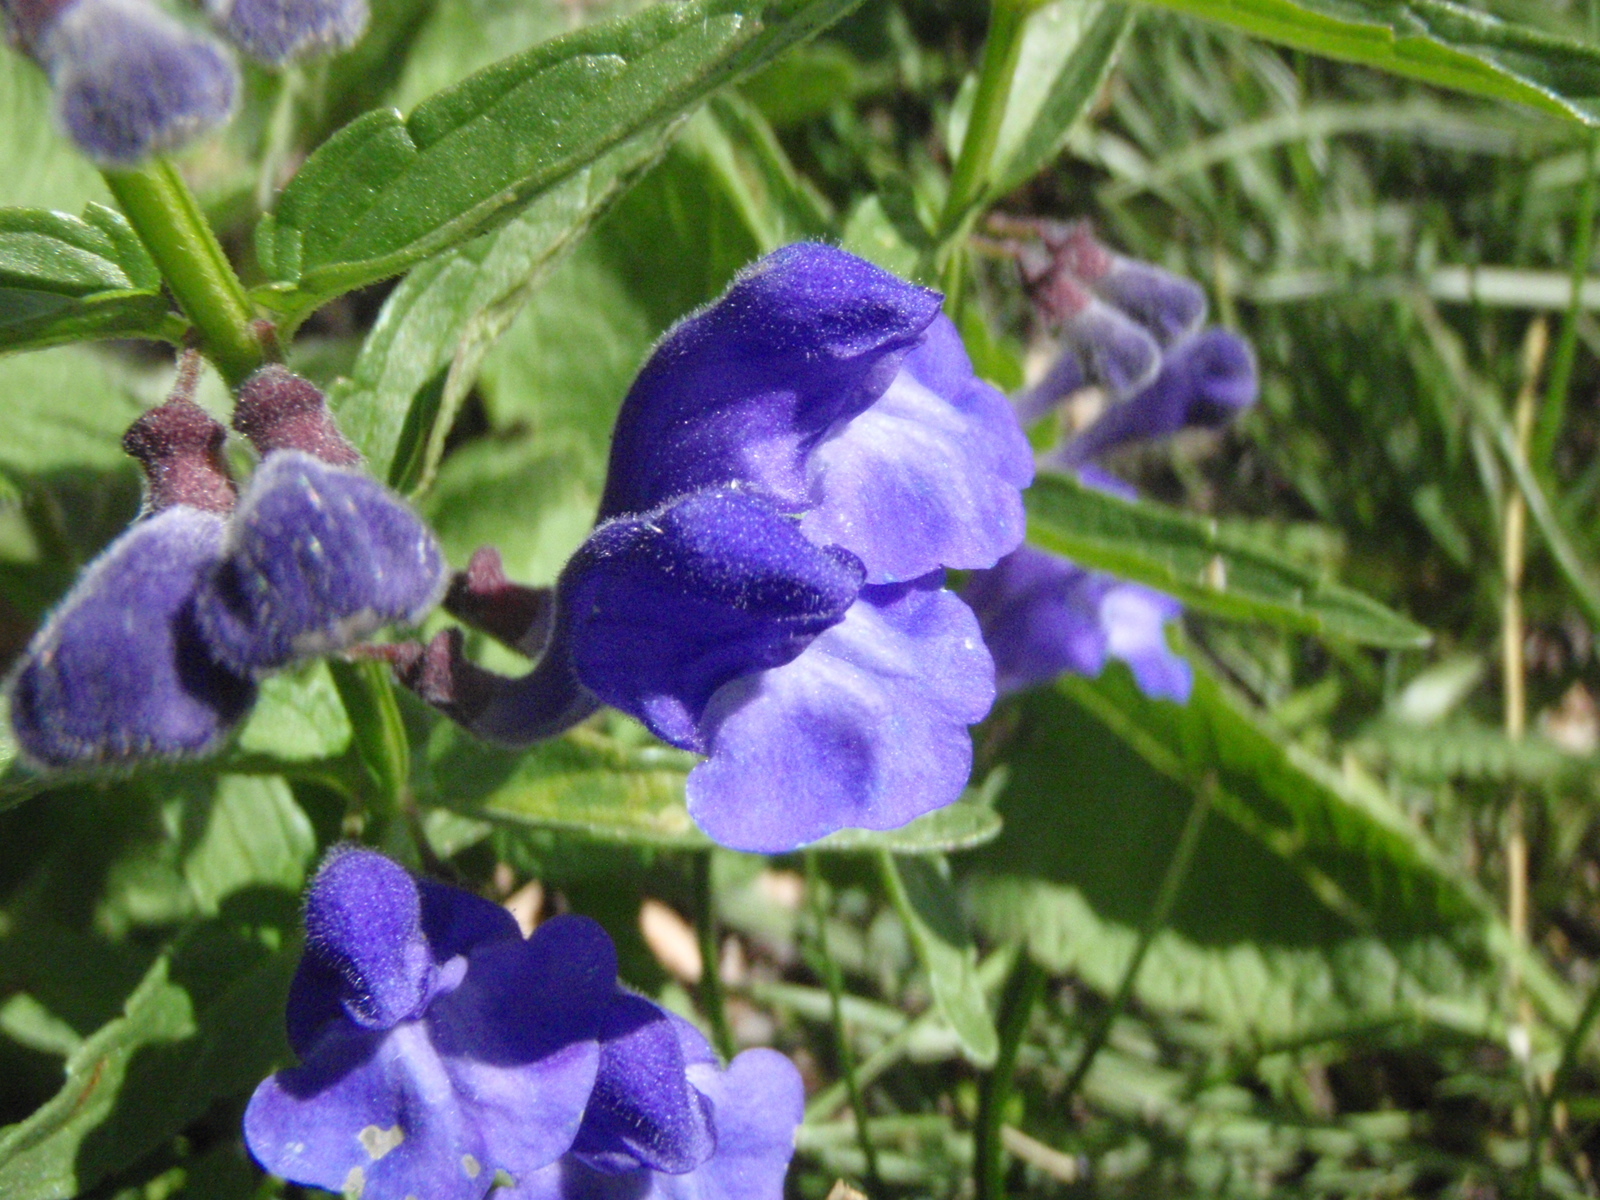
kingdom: Plantae
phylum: Tracheophyta
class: Magnoliopsida
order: Lamiales
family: Lamiaceae
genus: Scutellaria
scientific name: Scutellaria scordiifolia
